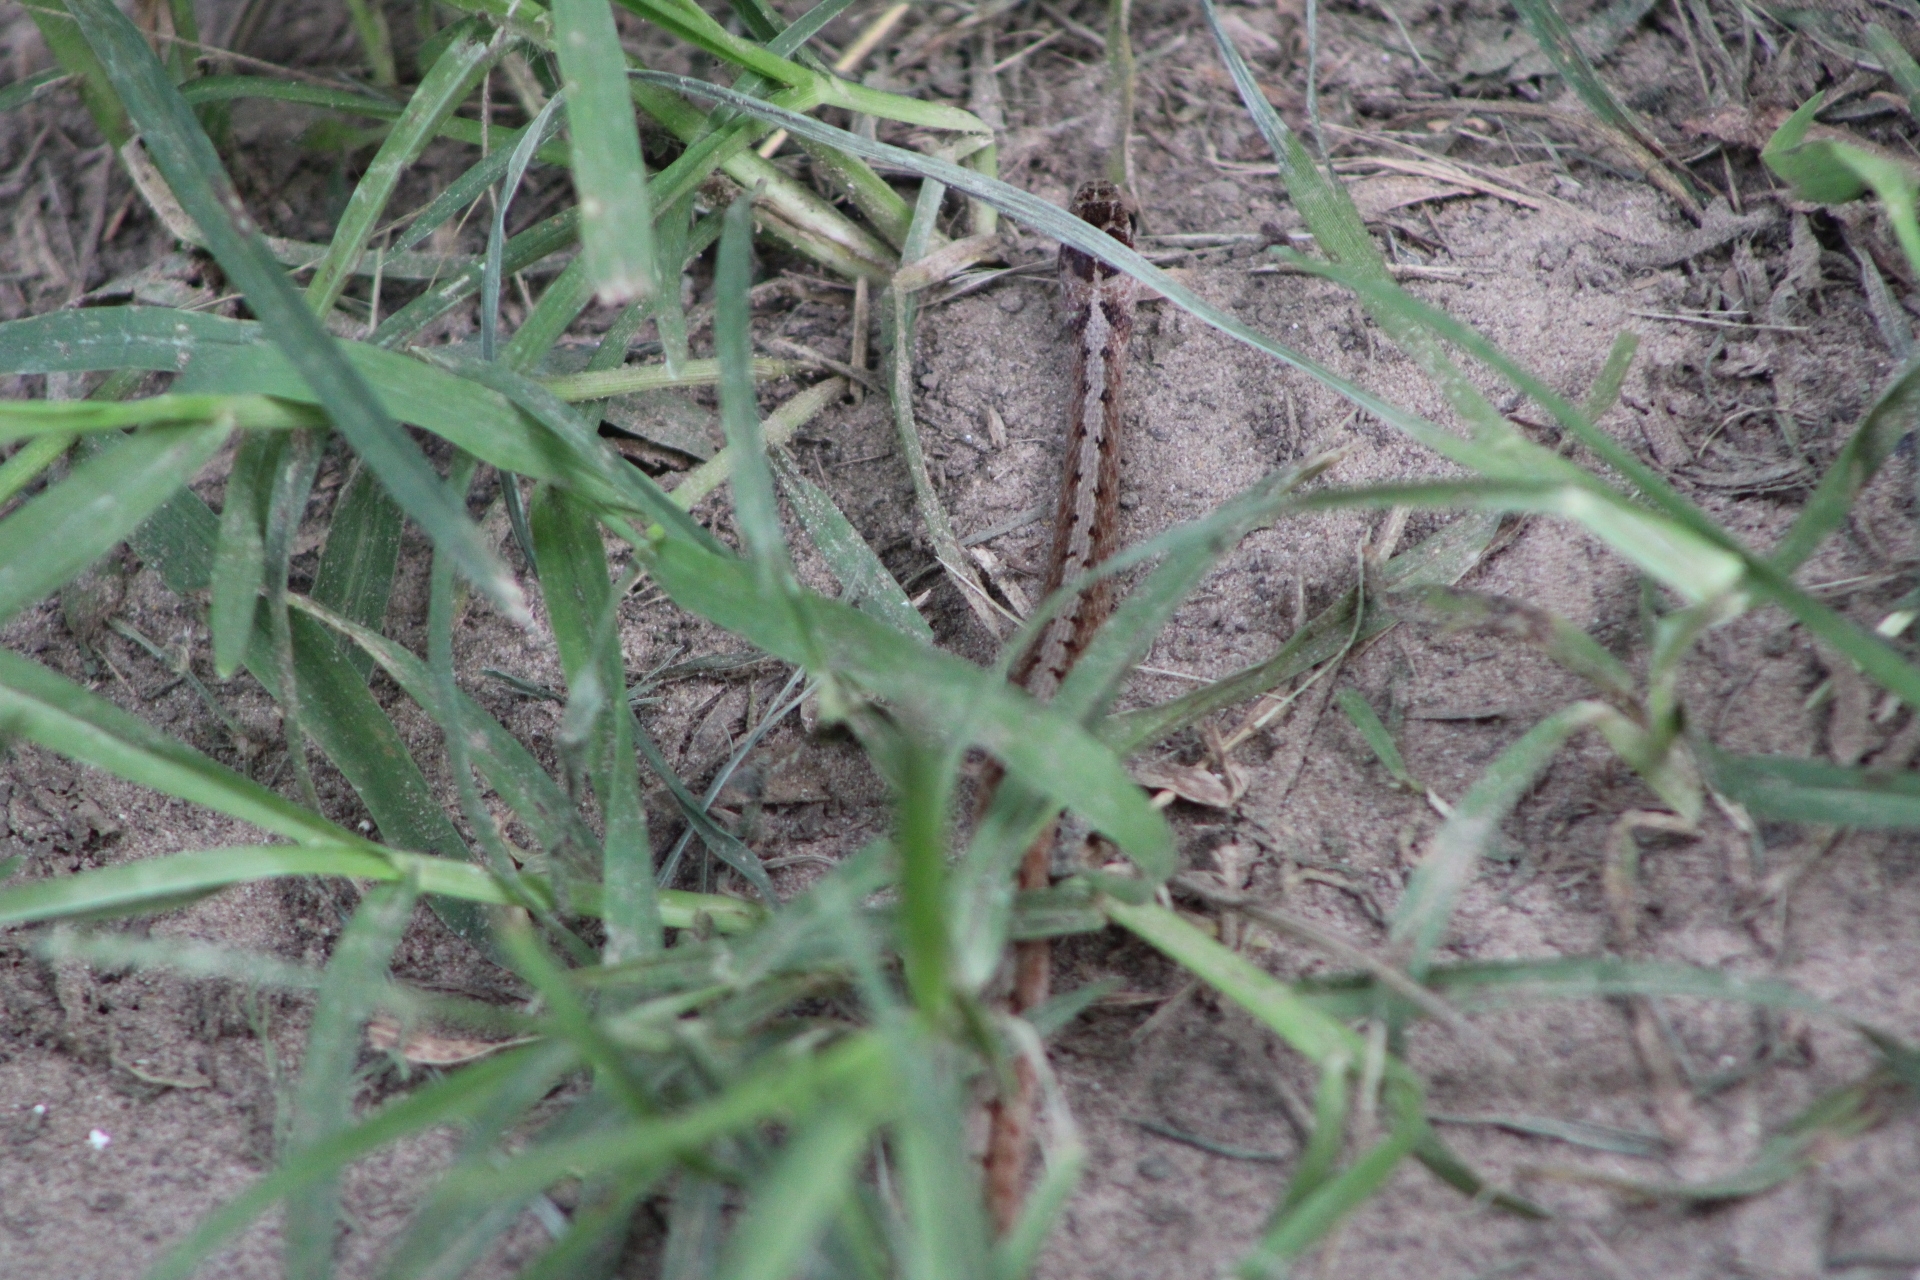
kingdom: Animalia
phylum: Chordata
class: Squamata
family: Colubridae
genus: Storeria
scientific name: Storeria dekayi
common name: (dekay’s) brown snake
